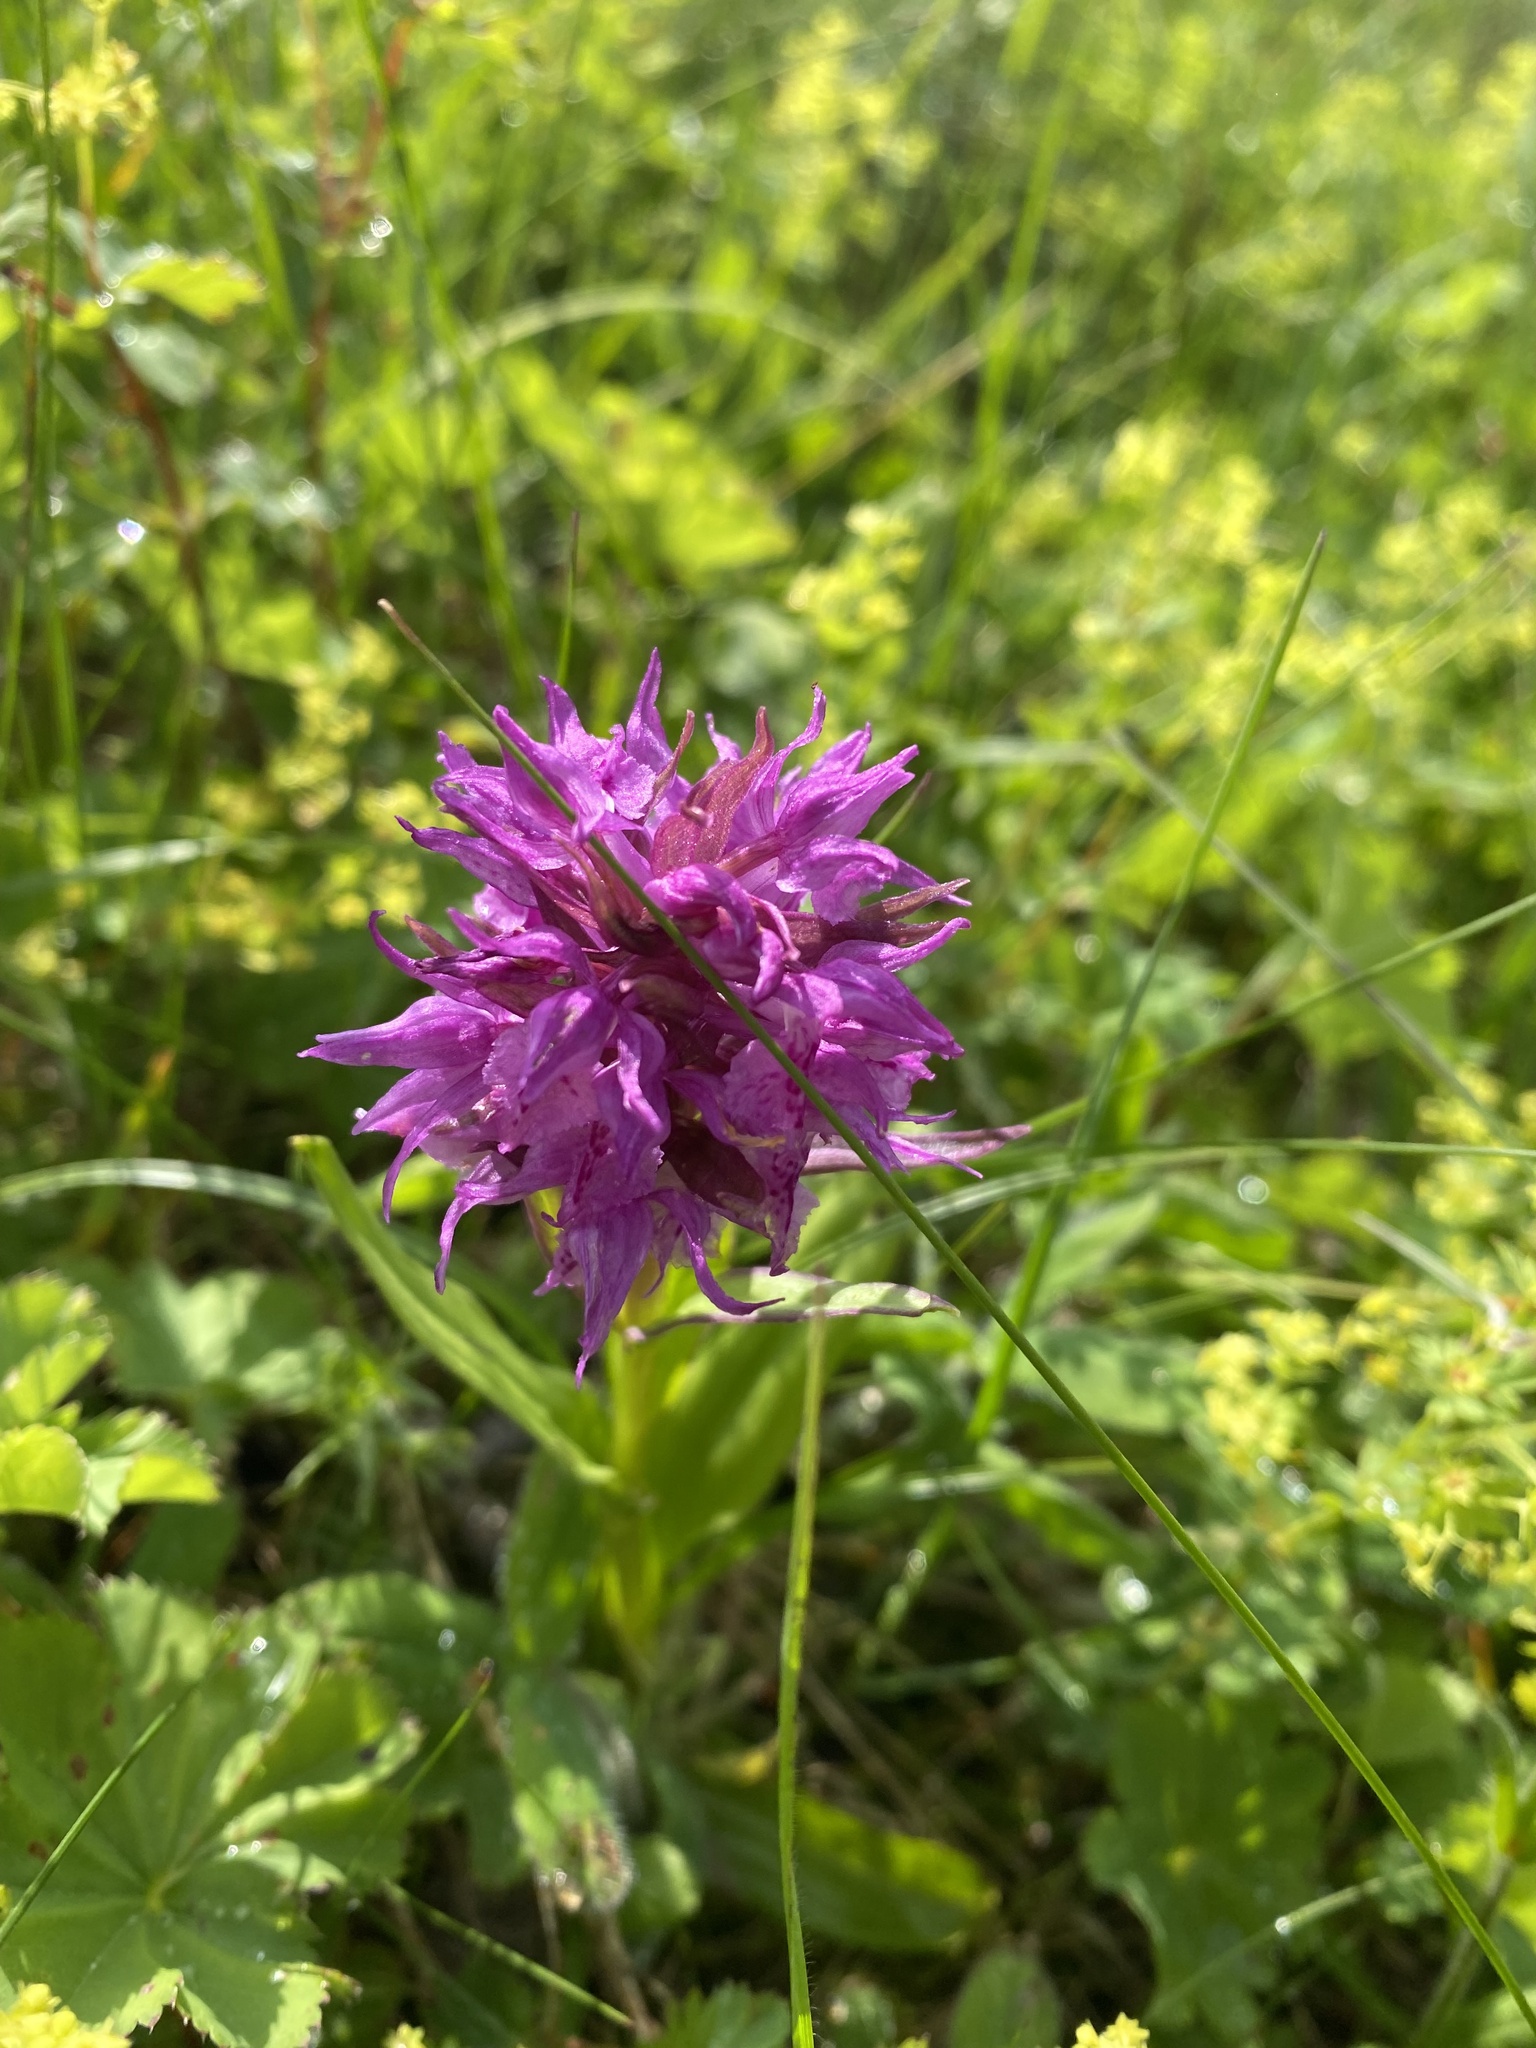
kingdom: Plantae
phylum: Tracheophyta
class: Liliopsida
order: Asparagales
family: Orchidaceae
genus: Dactylorhiza
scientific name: Dactylorhiza euxina
